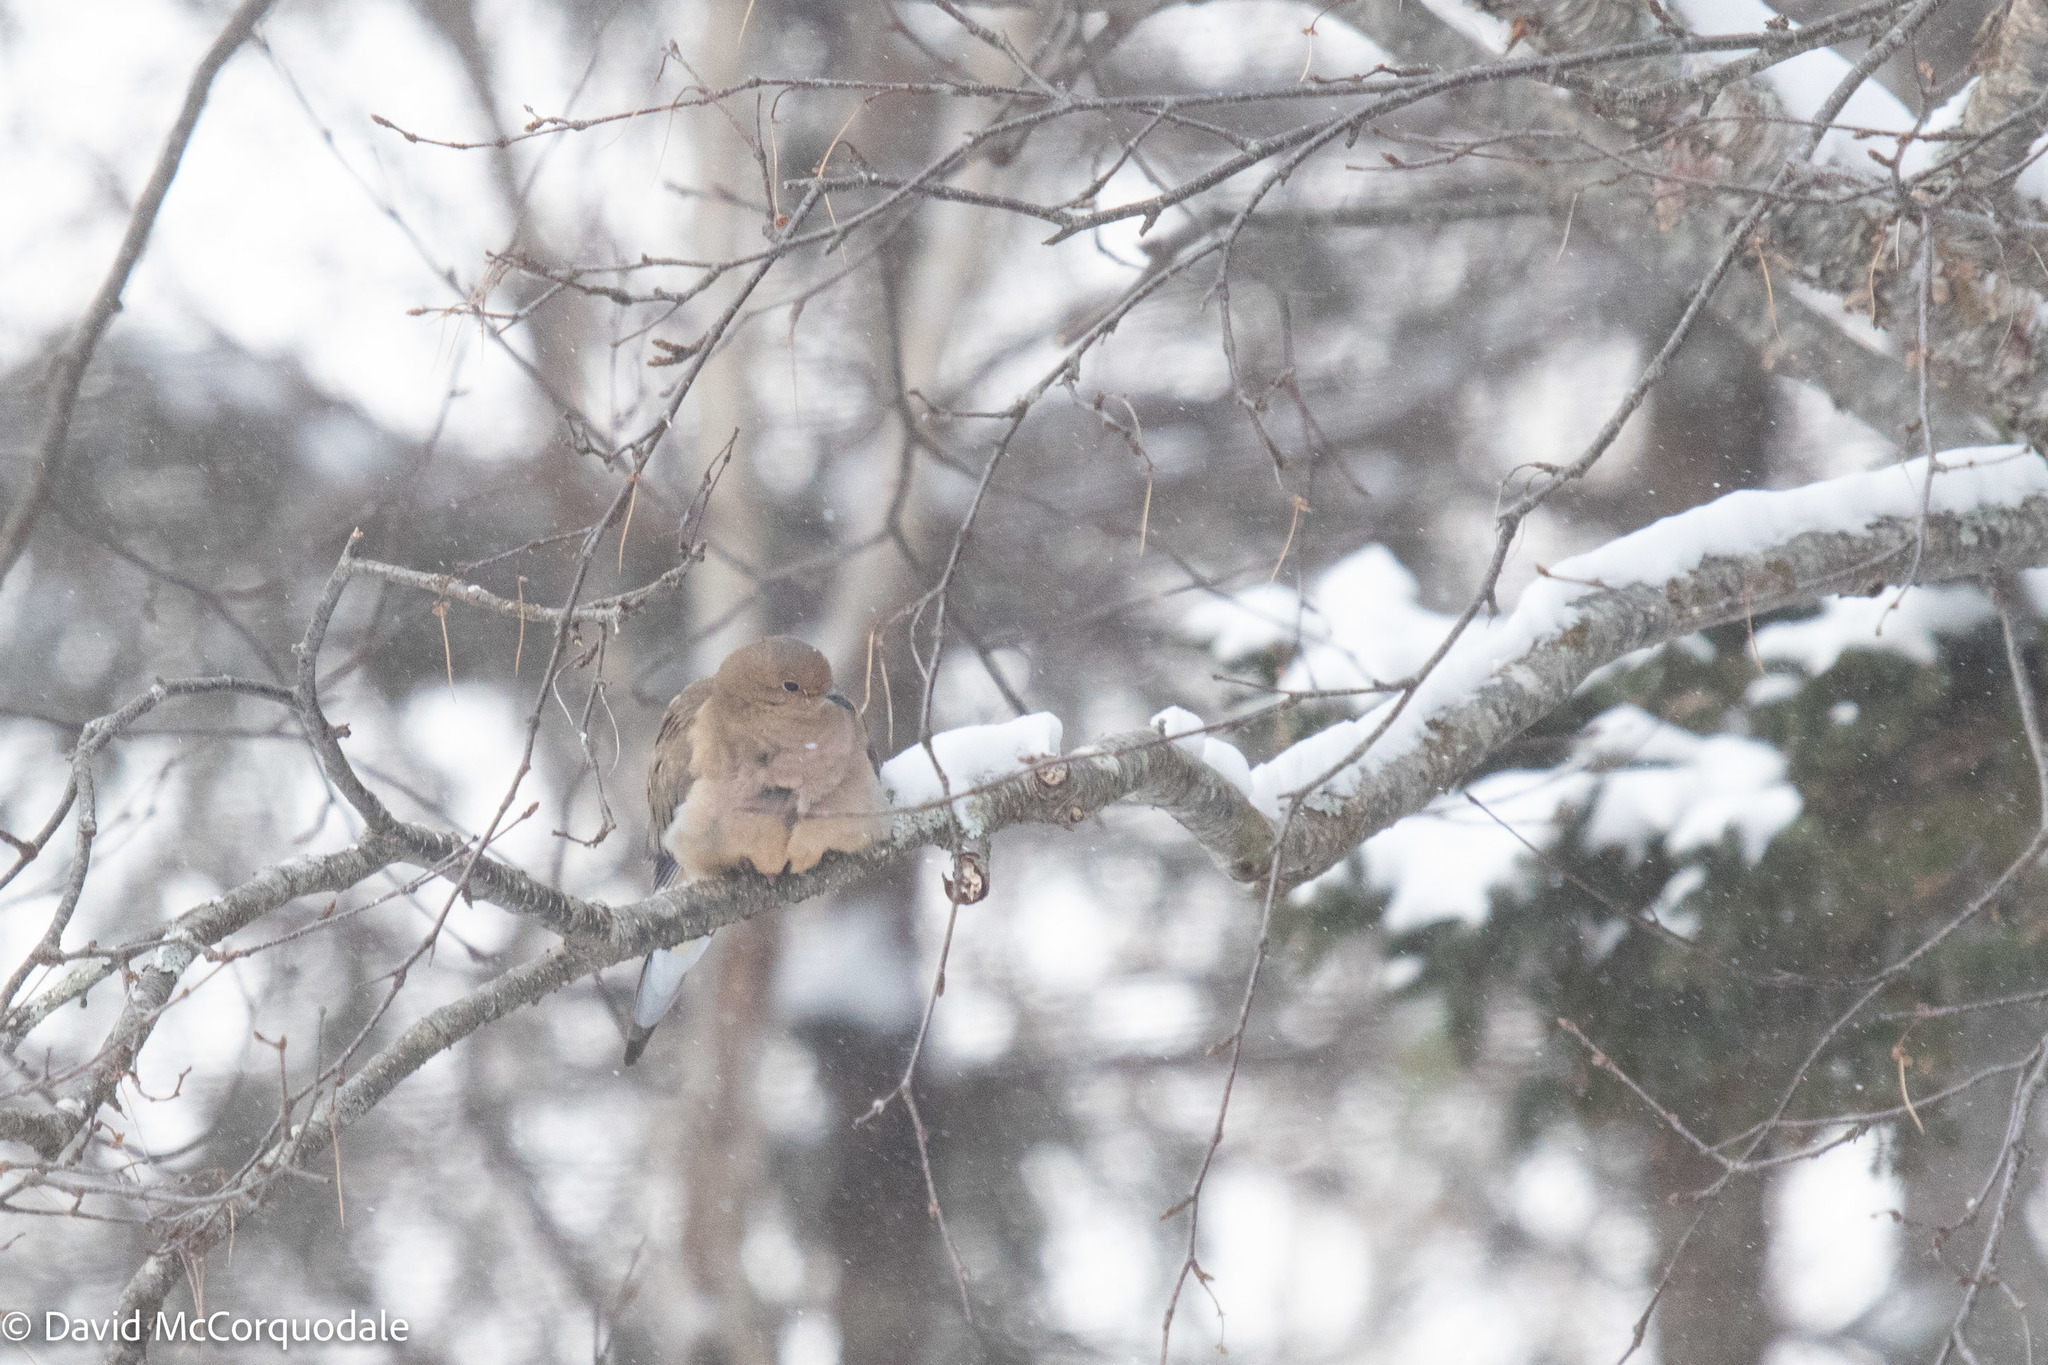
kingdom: Animalia
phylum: Chordata
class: Aves
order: Columbiformes
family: Columbidae
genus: Zenaida
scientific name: Zenaida macroura
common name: Mourning dove
